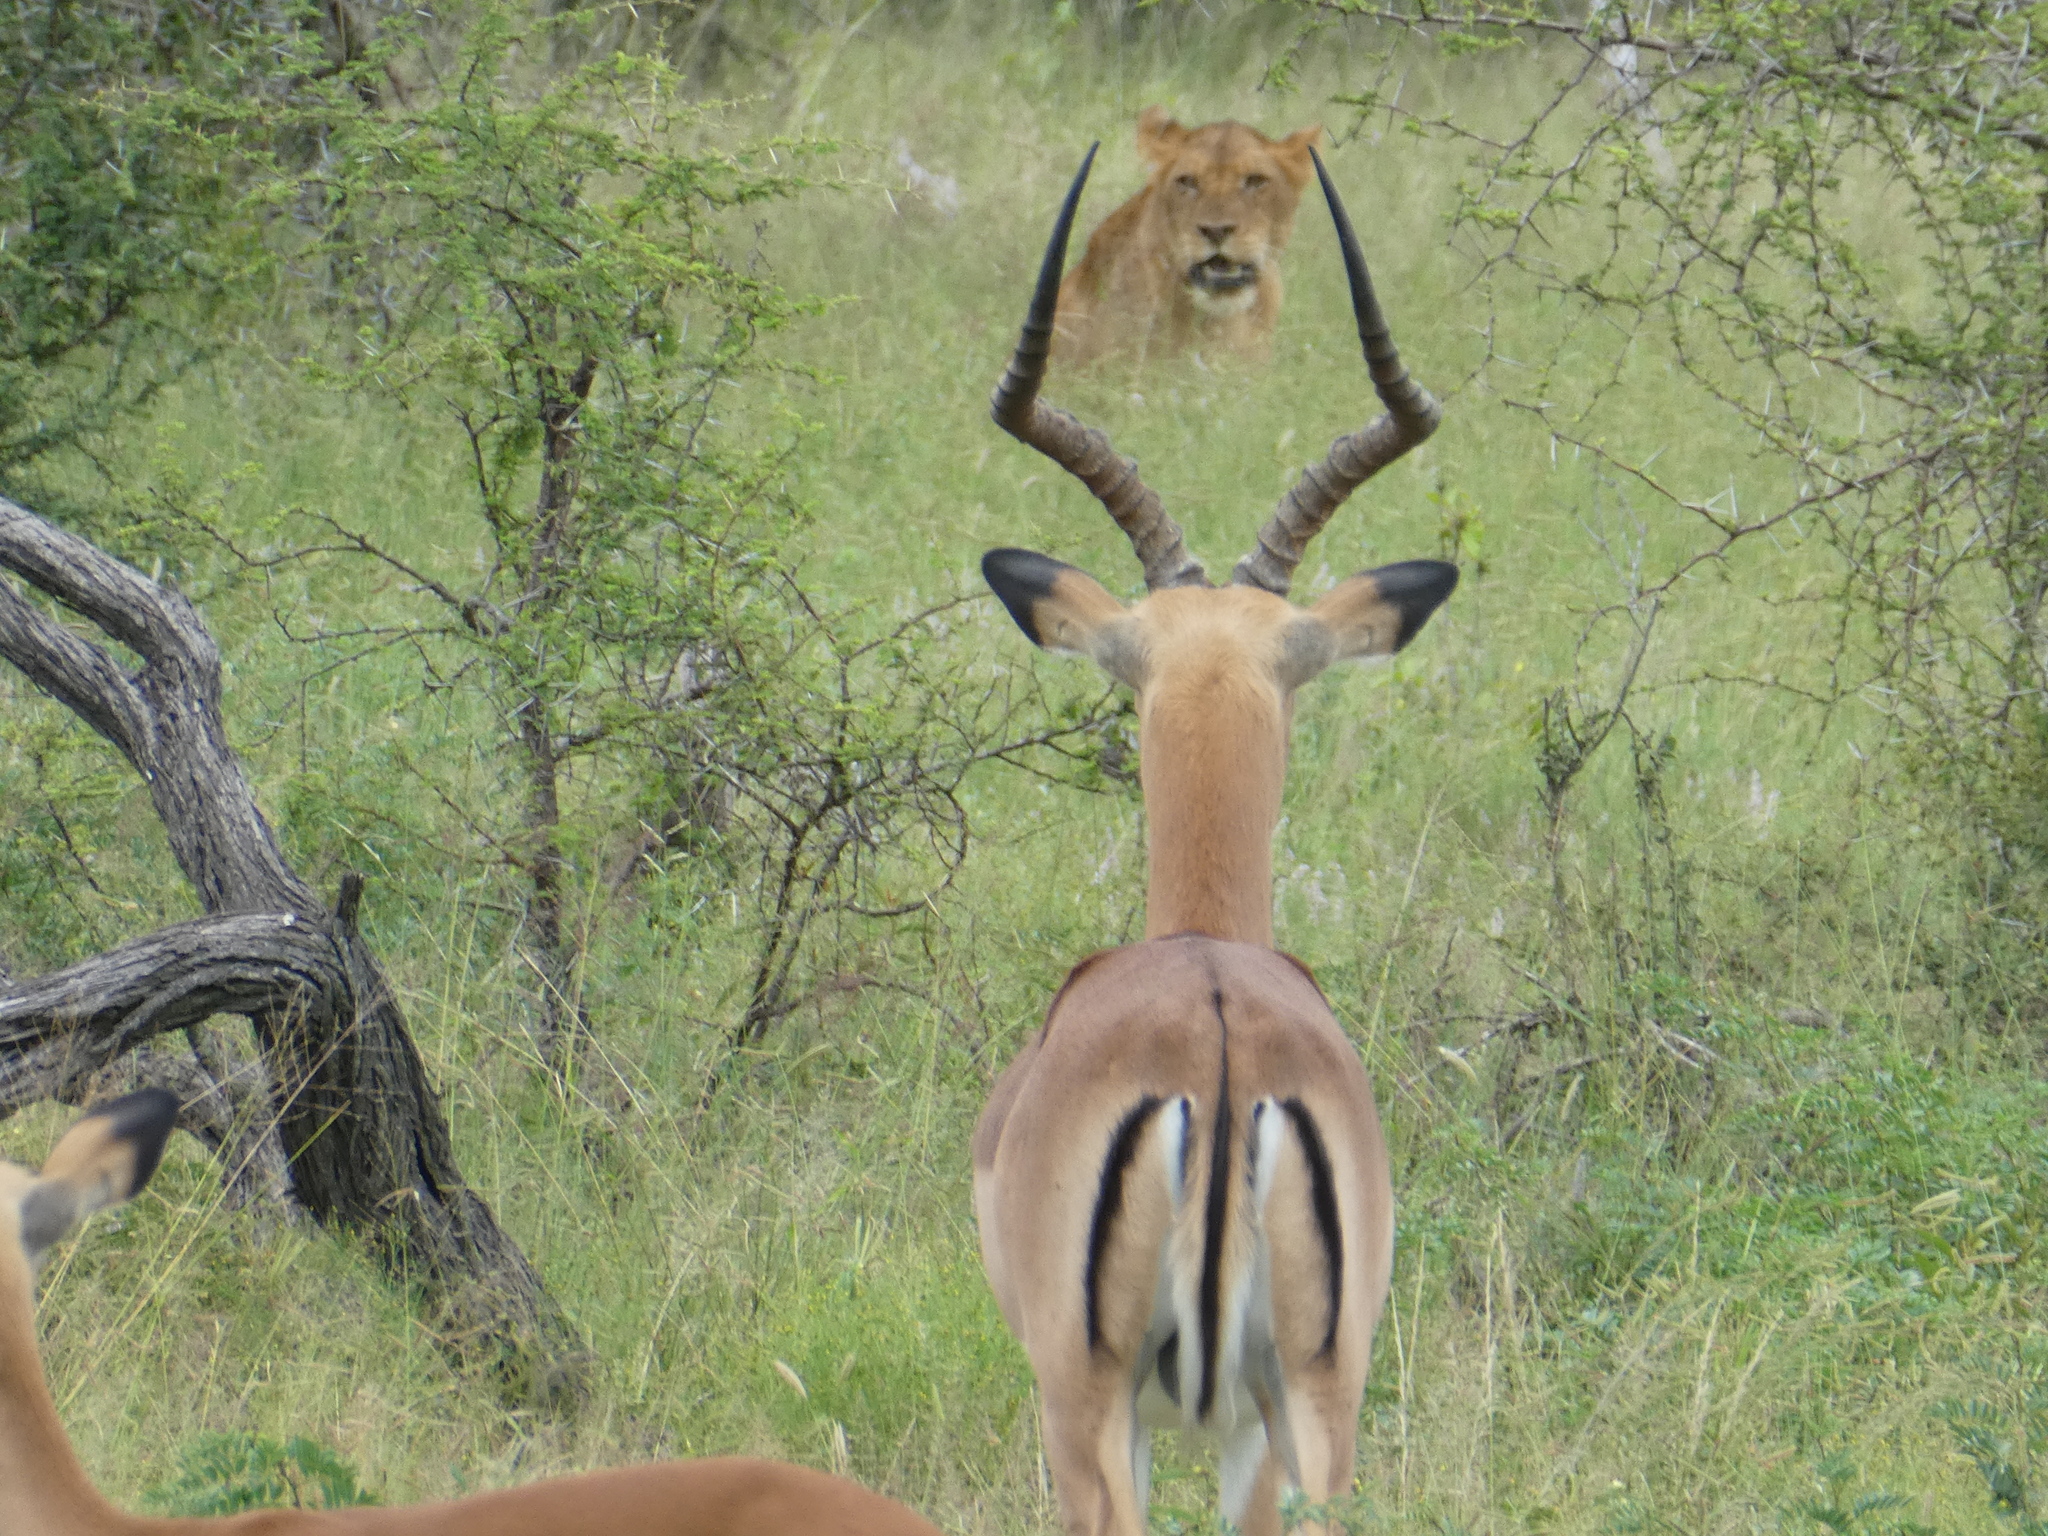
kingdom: Animalia
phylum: Chordata
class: Mammalia
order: Artiodactyla
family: Bovidae
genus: Aepyceros
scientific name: Aepyceros melampus
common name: Impala
